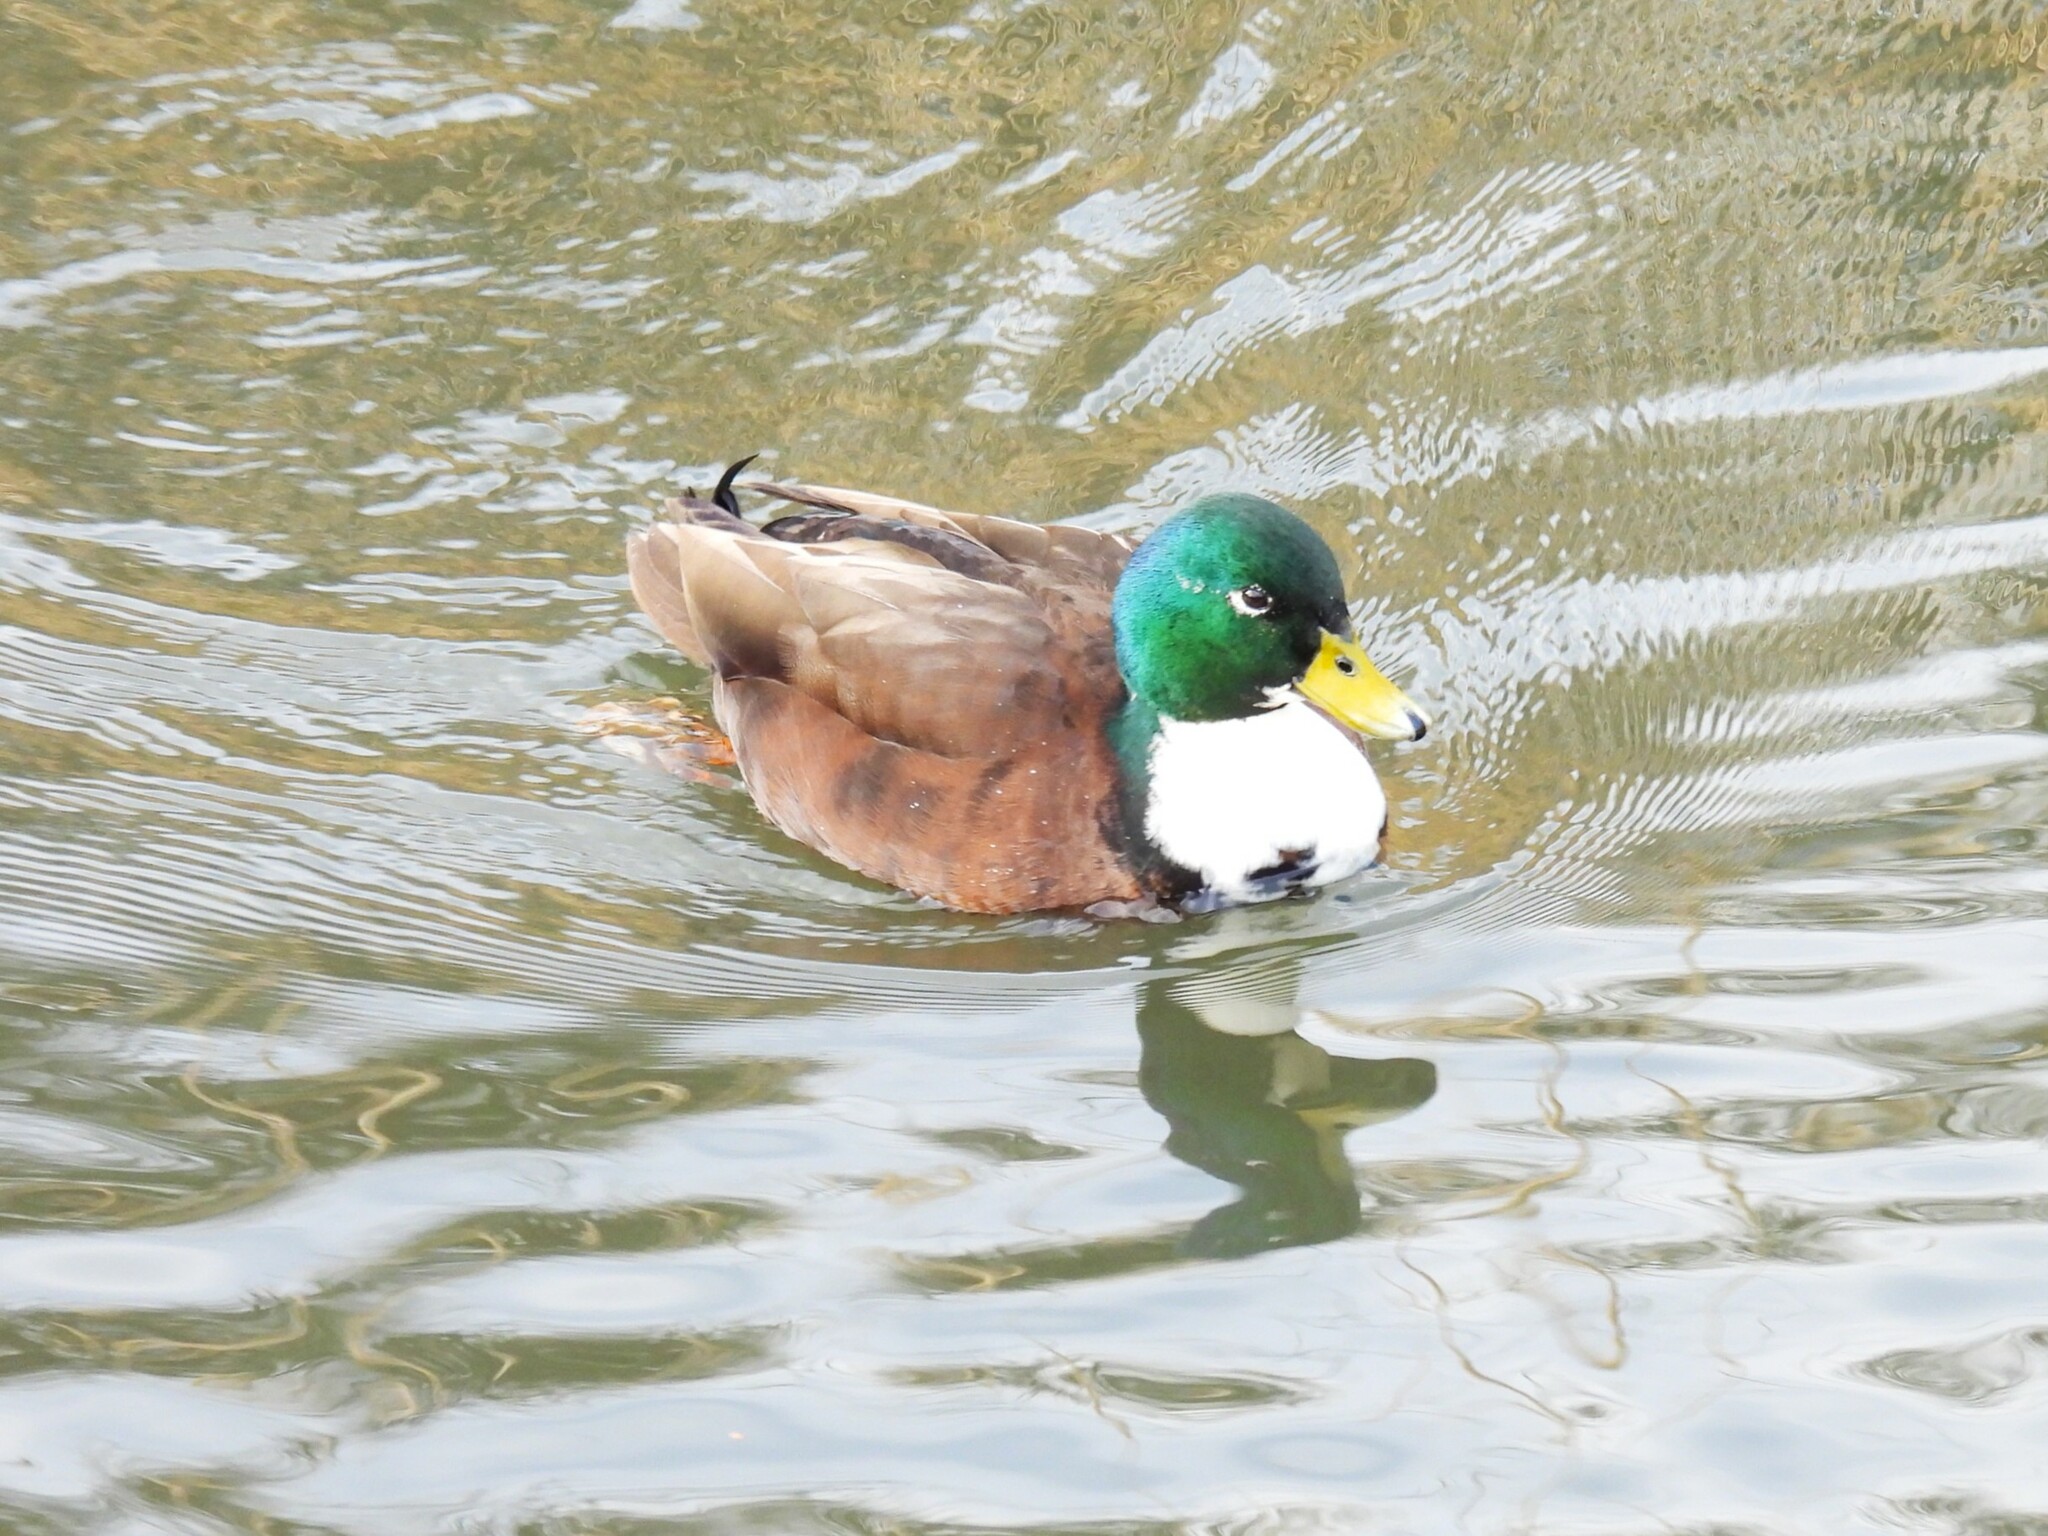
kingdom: Animalia
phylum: Chordata
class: Aves
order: Anseriformes
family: Anatidae
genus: Anas
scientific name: Anas platyrhynchos
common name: Mallard
